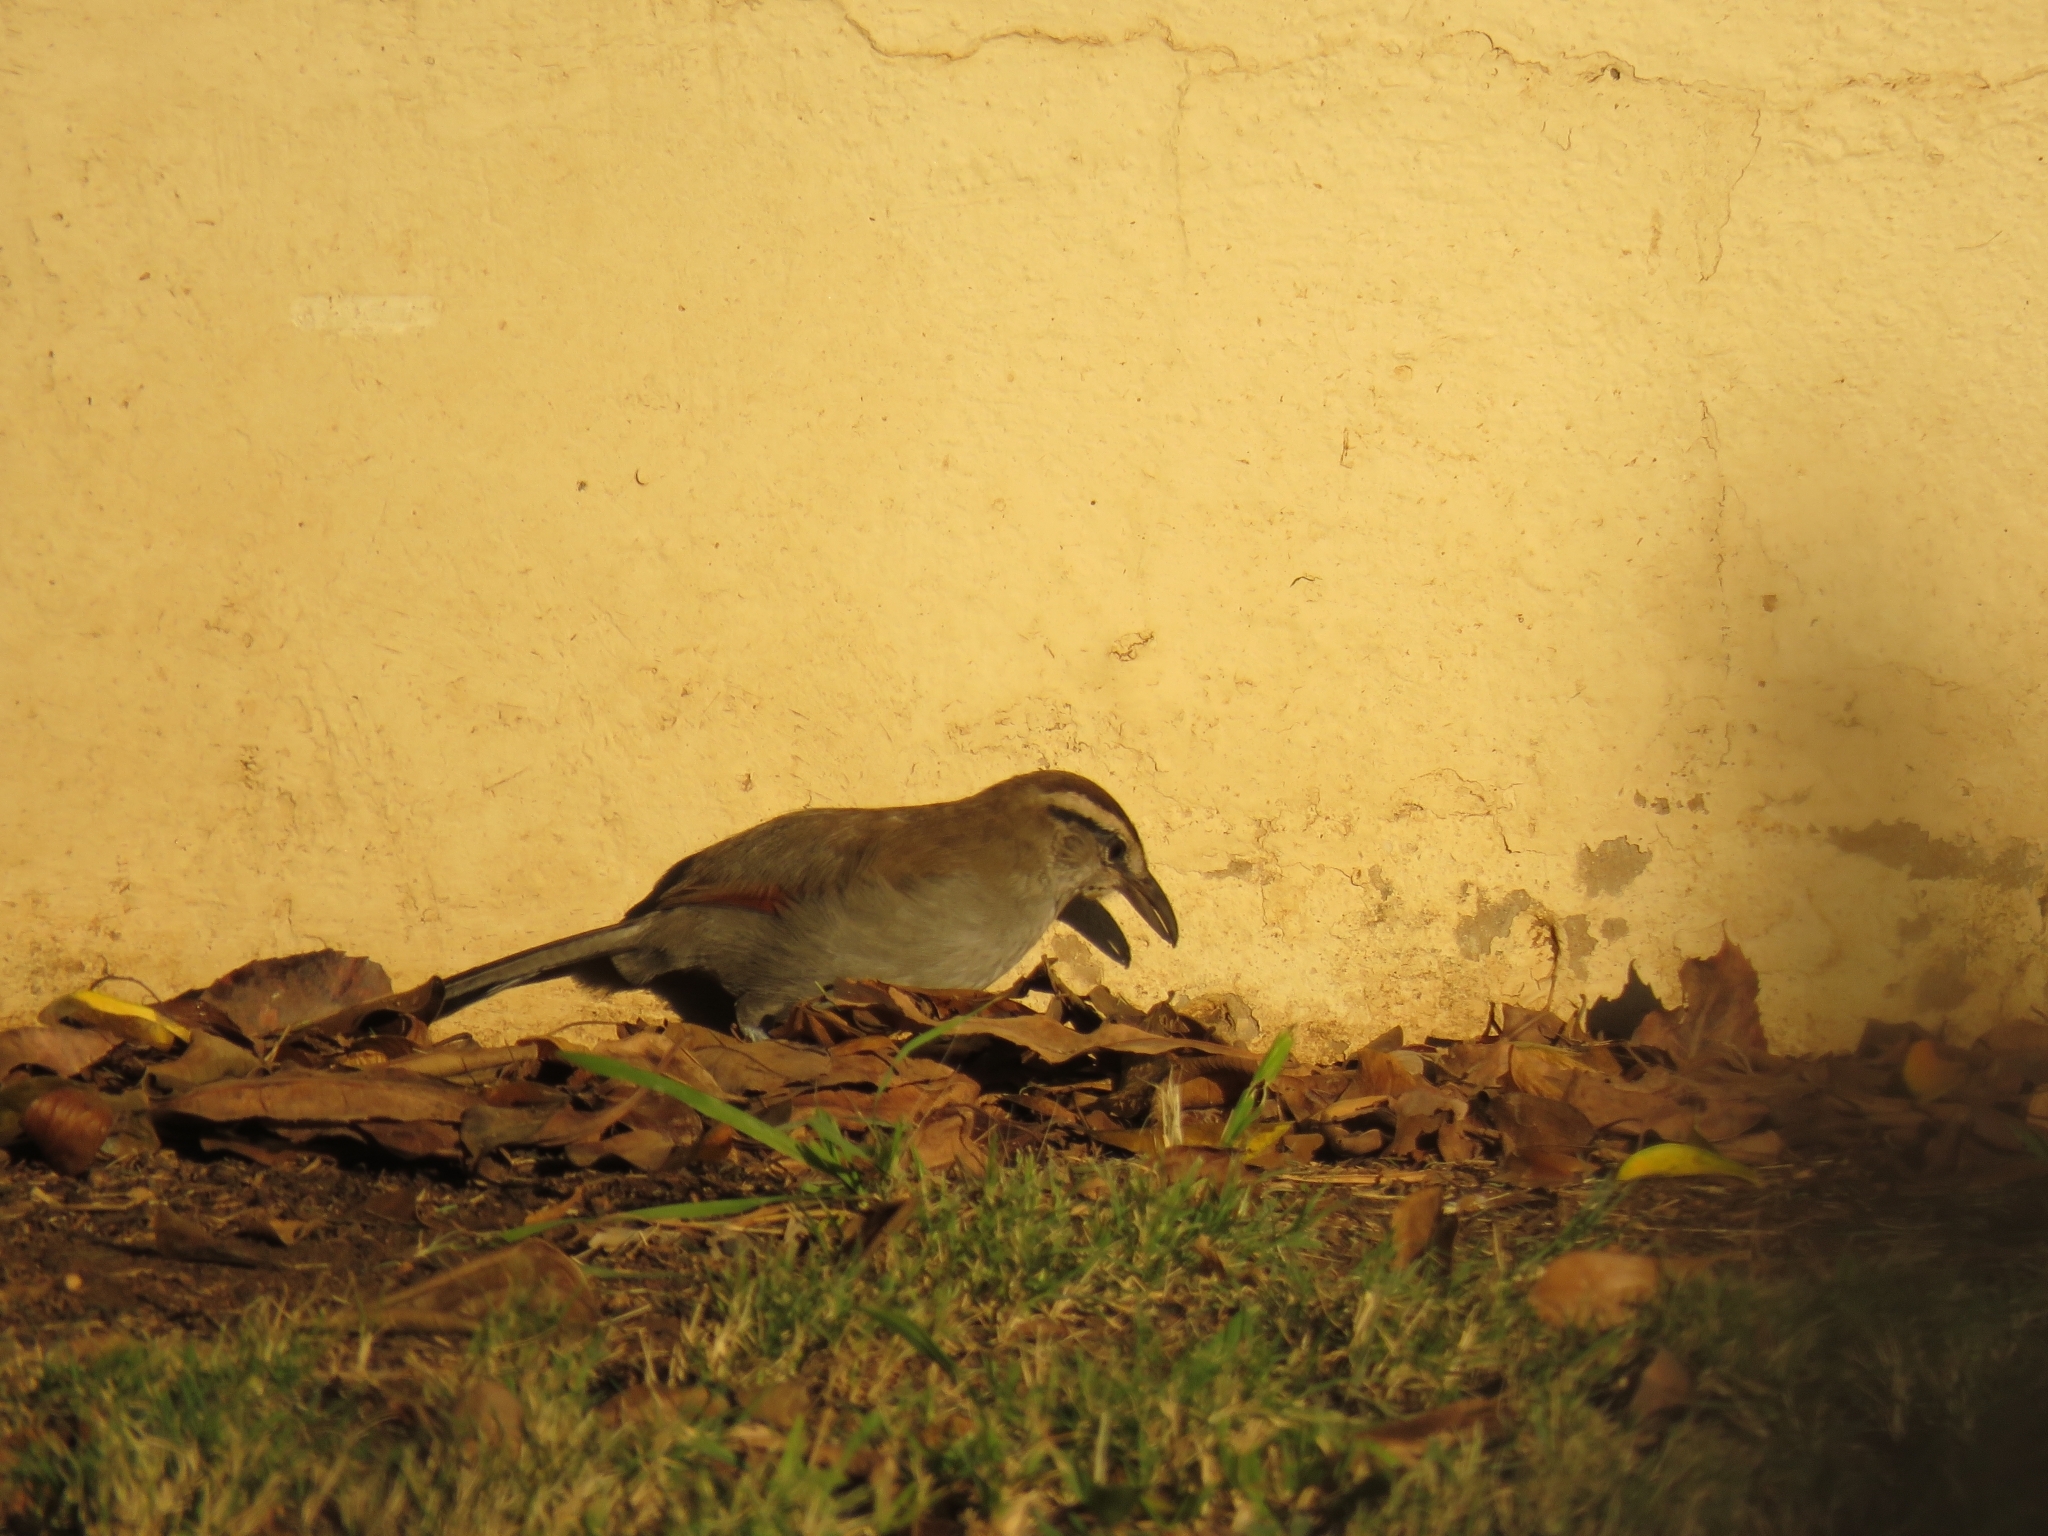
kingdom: Animalia
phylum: Chordata
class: Aves
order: Passeriformes
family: Malaconotidae
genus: Tchagra
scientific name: Tchagra tchagra
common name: Southern tchagra
